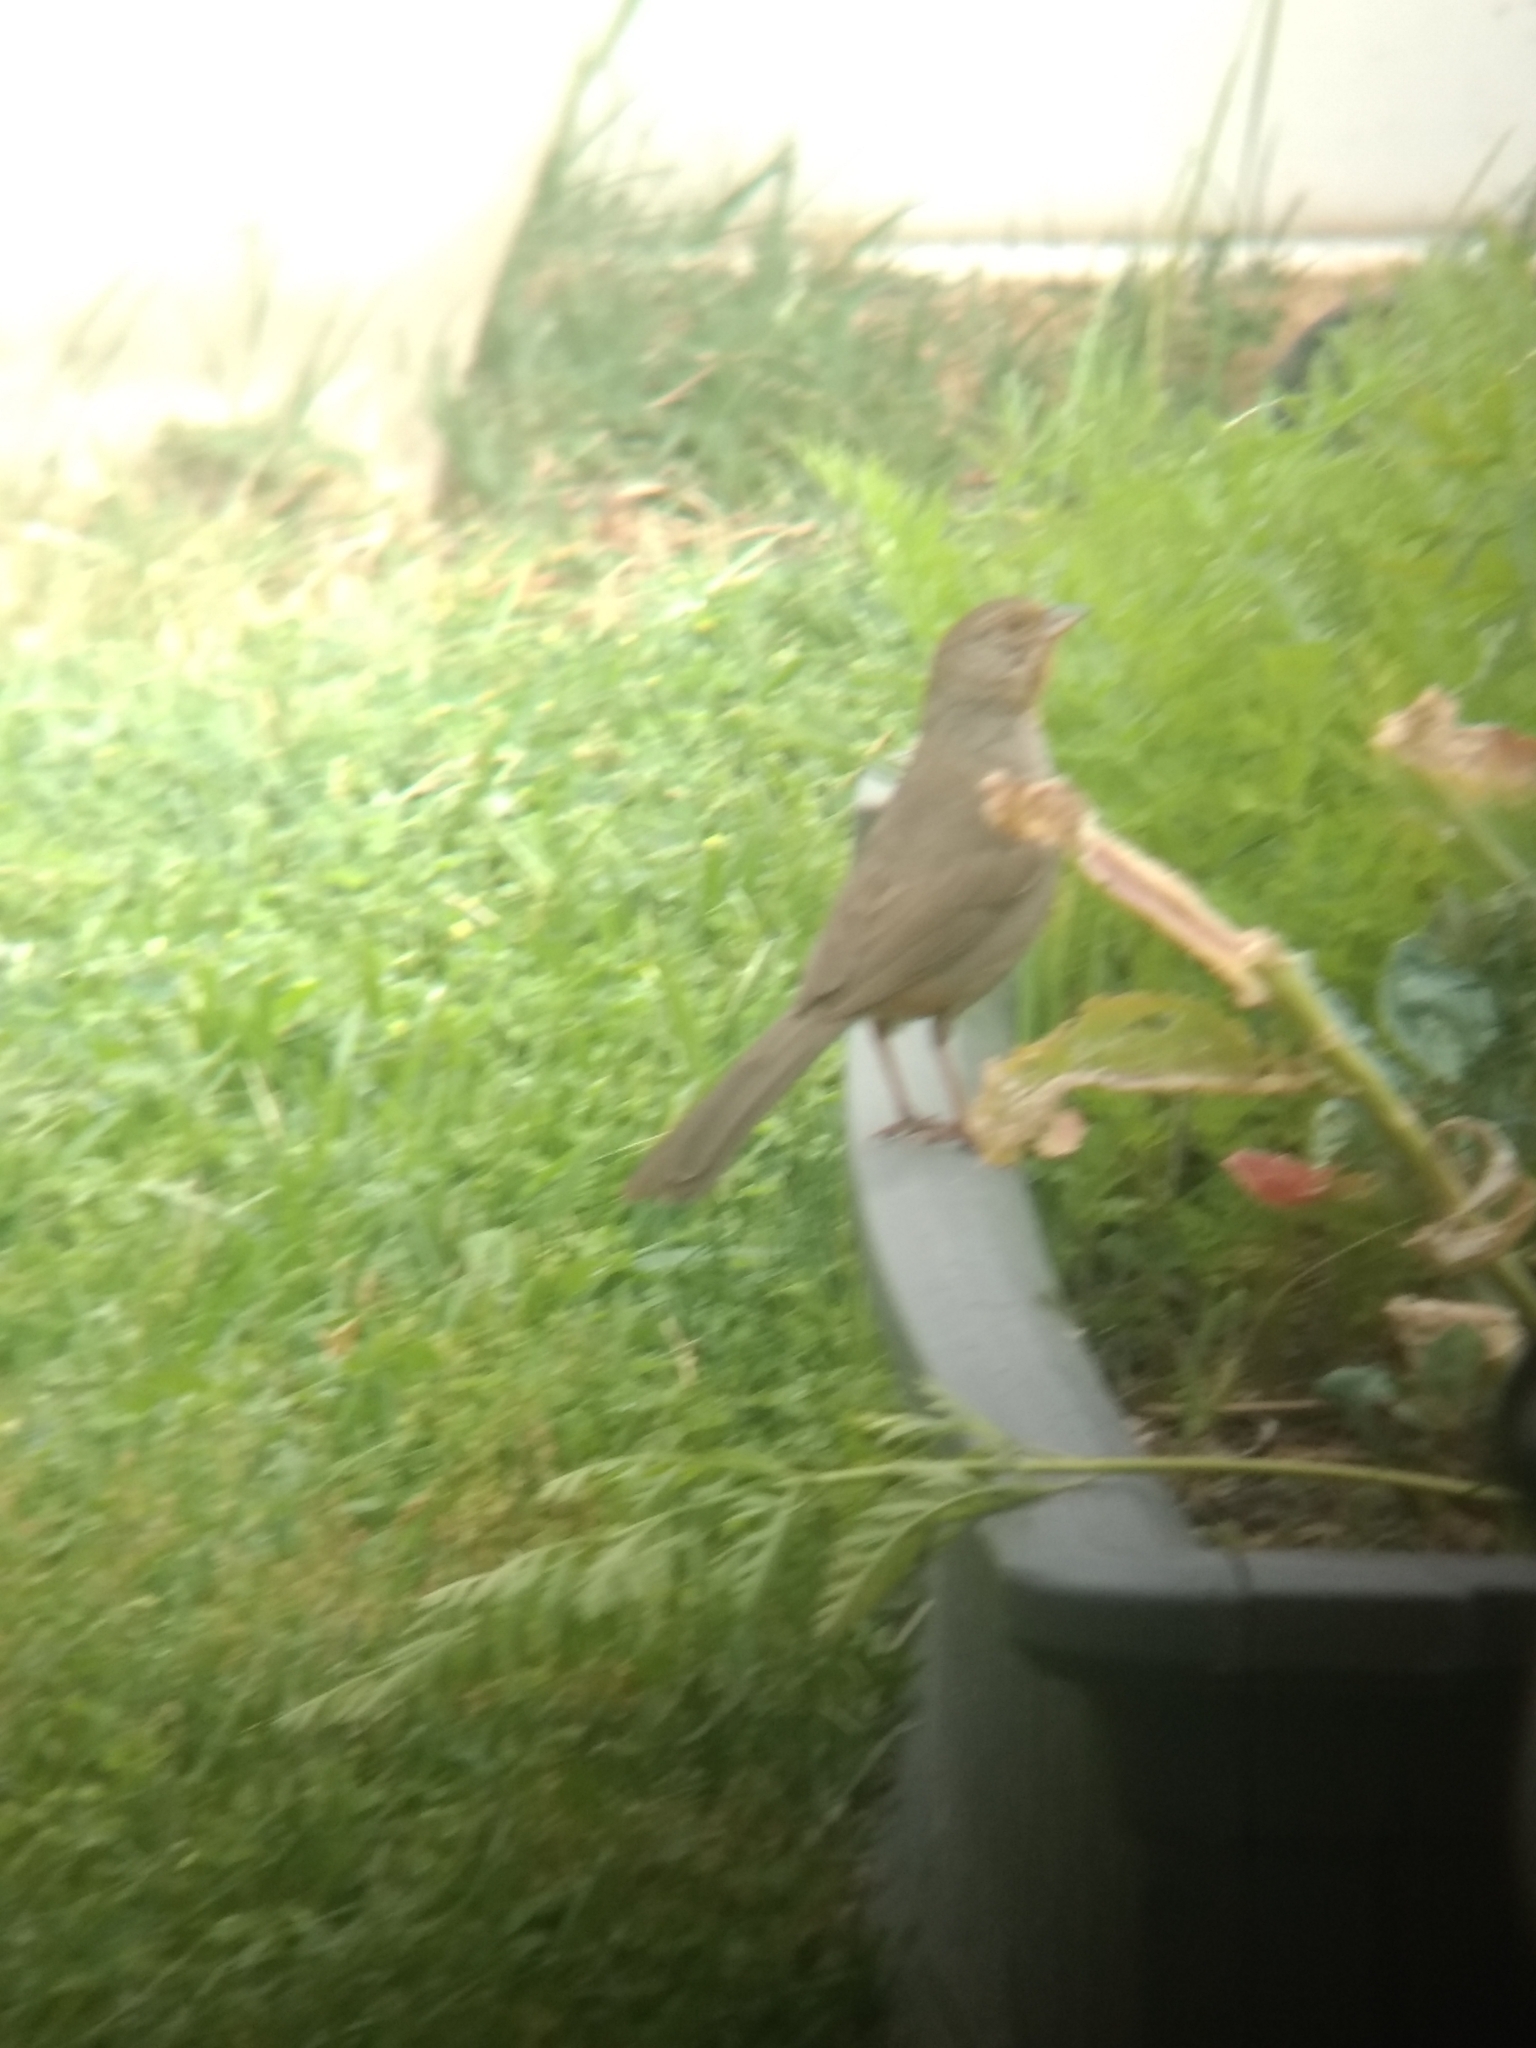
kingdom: Animalia
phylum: Chordata
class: Aves
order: Passeriformes
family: Passerellidae
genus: Melozone
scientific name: Melozone crissalis
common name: California towhee
